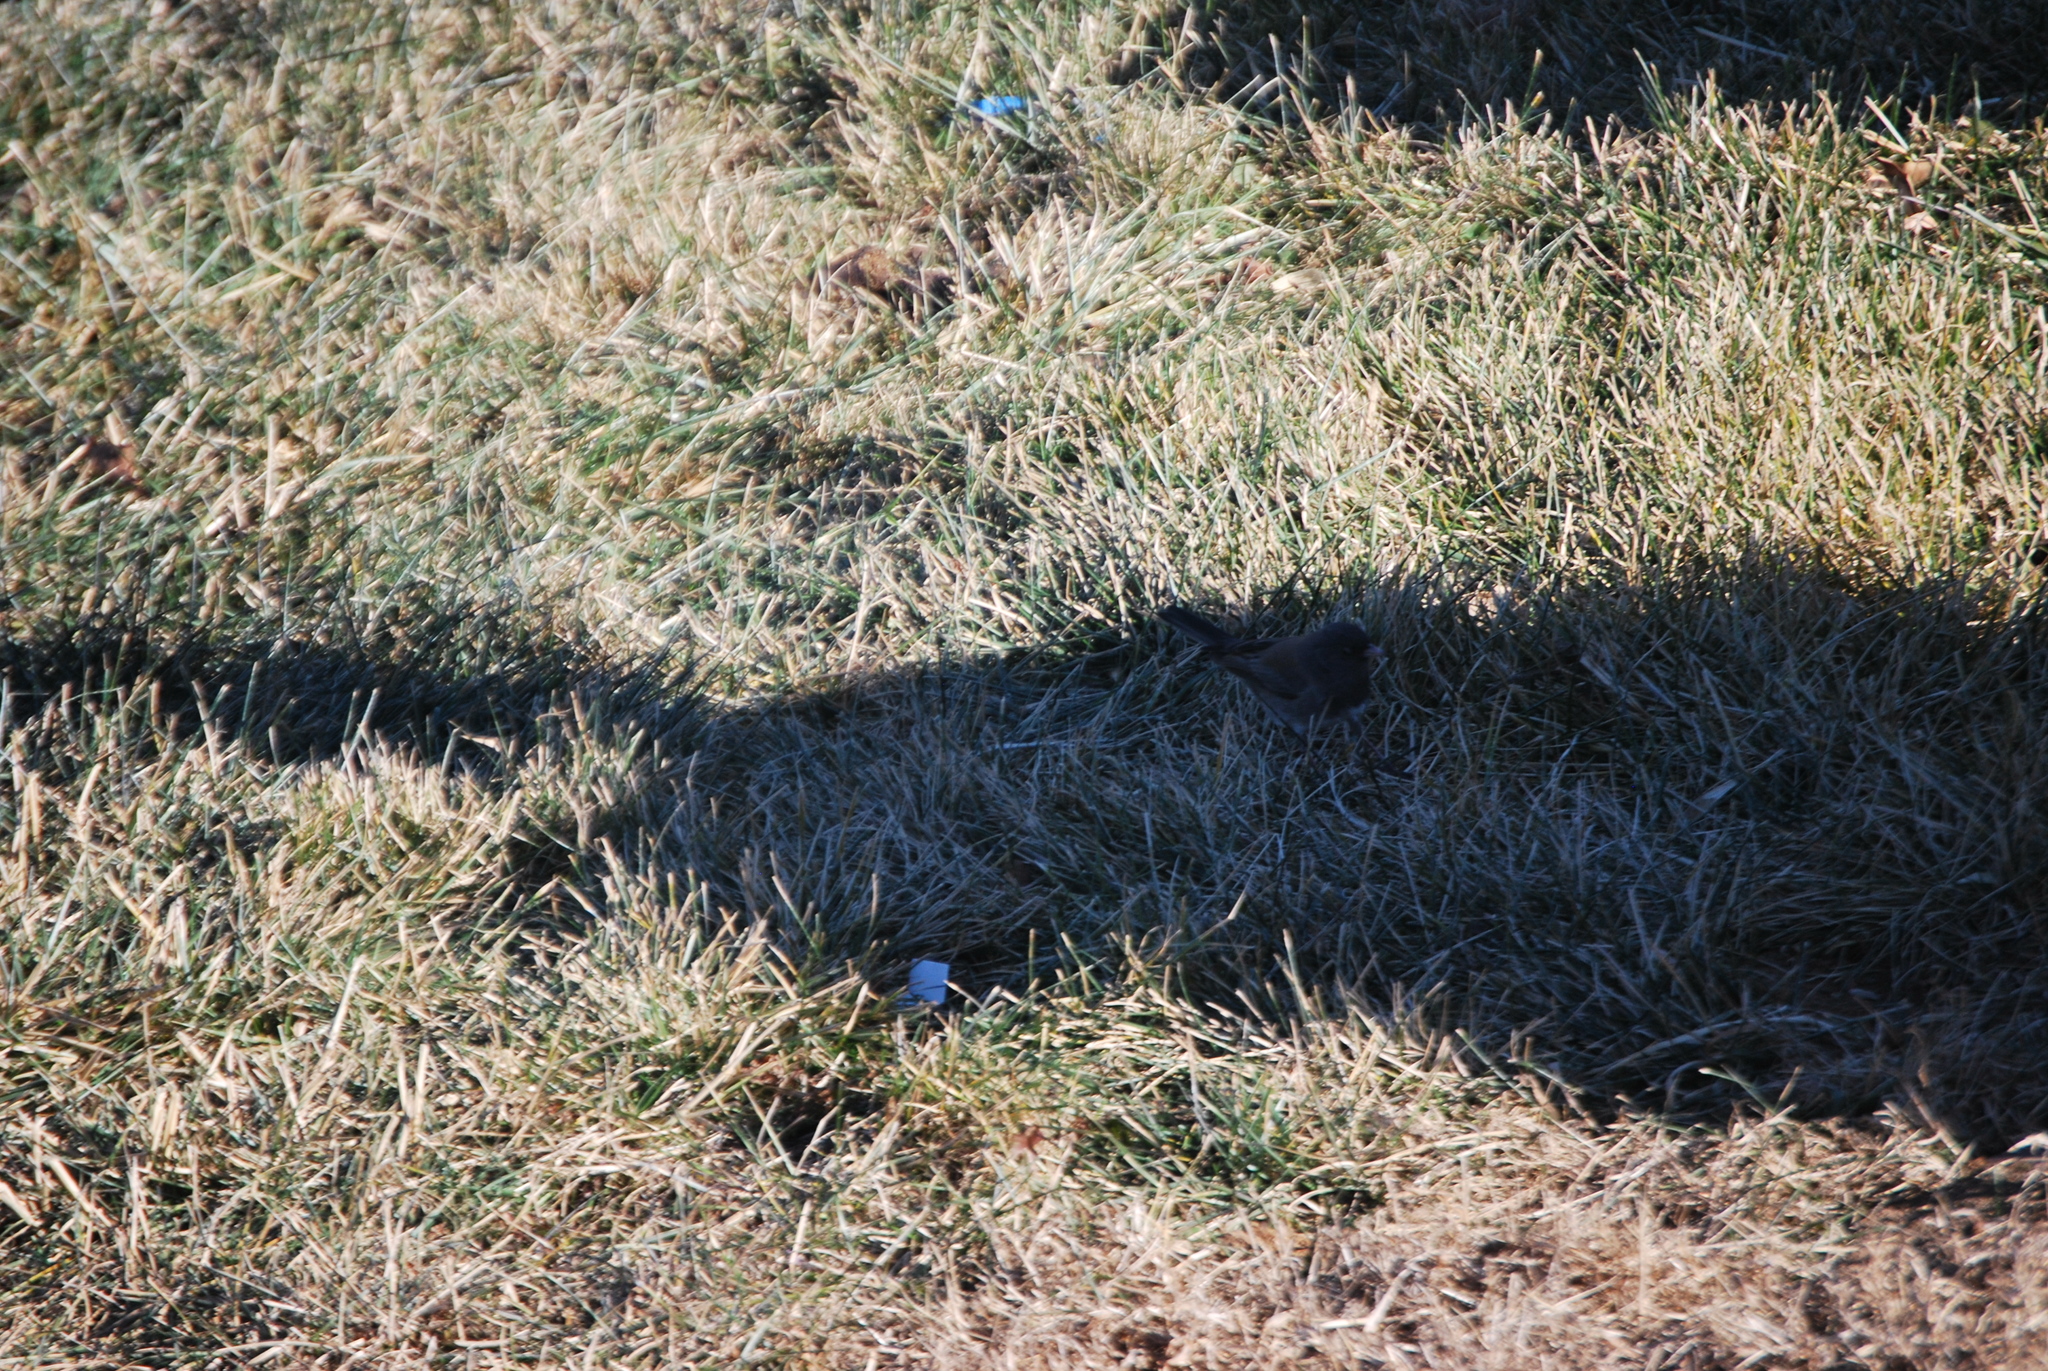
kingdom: Animalia
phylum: Chordata
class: Aves
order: Passeriformes
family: Passerellidae
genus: Junco
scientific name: Junco hyemalis
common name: Dark-eyed junco
